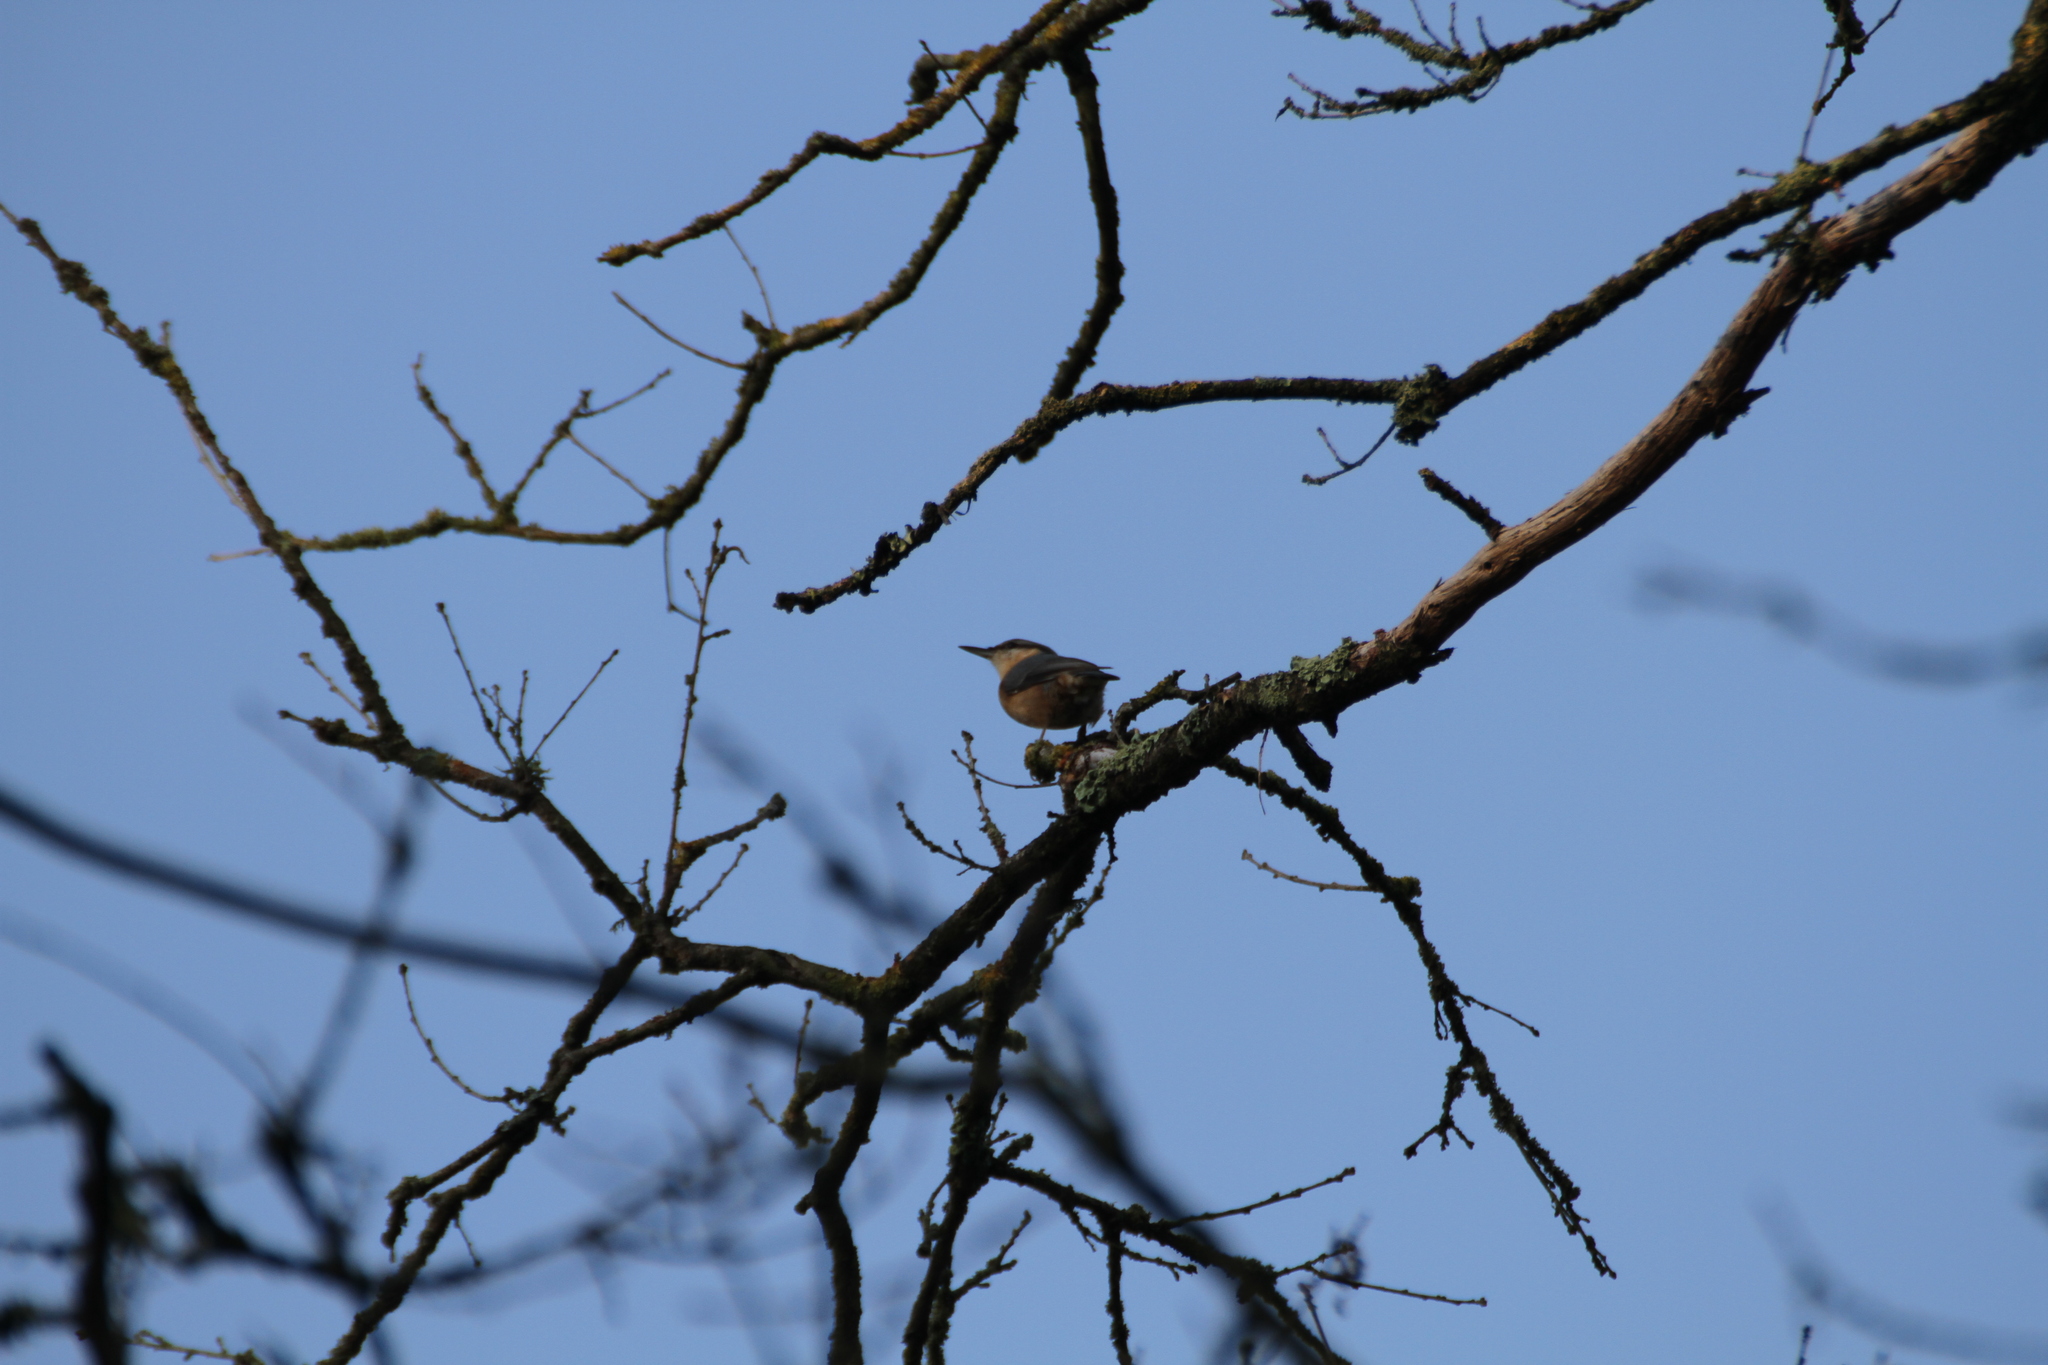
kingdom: Animalia
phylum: Chordata
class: Aves
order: Passeriformes
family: Sittidae
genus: Sitta
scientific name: Sitta europaea
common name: Eurasian nuthatch
